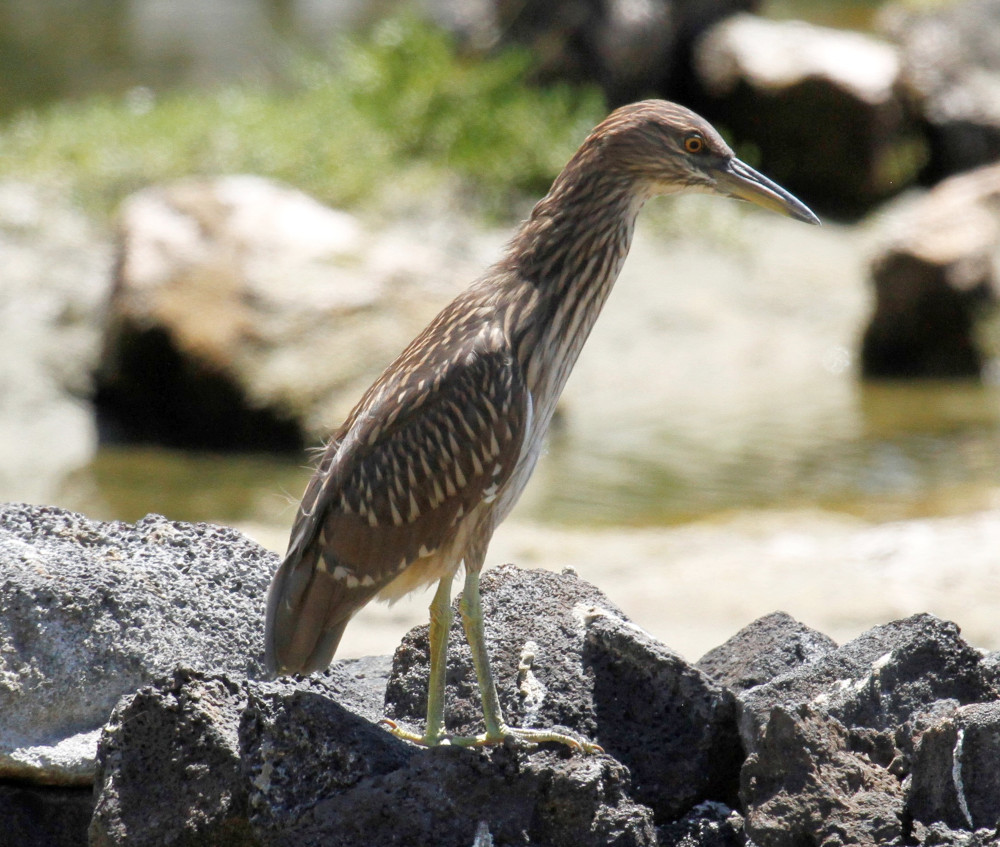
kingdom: Animalia
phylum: Chordata
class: Aves
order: Pelecaniformes
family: Ardeidae
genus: Nycticorax
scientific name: Nycticorax nycticorax
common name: Black-crowned night heron
